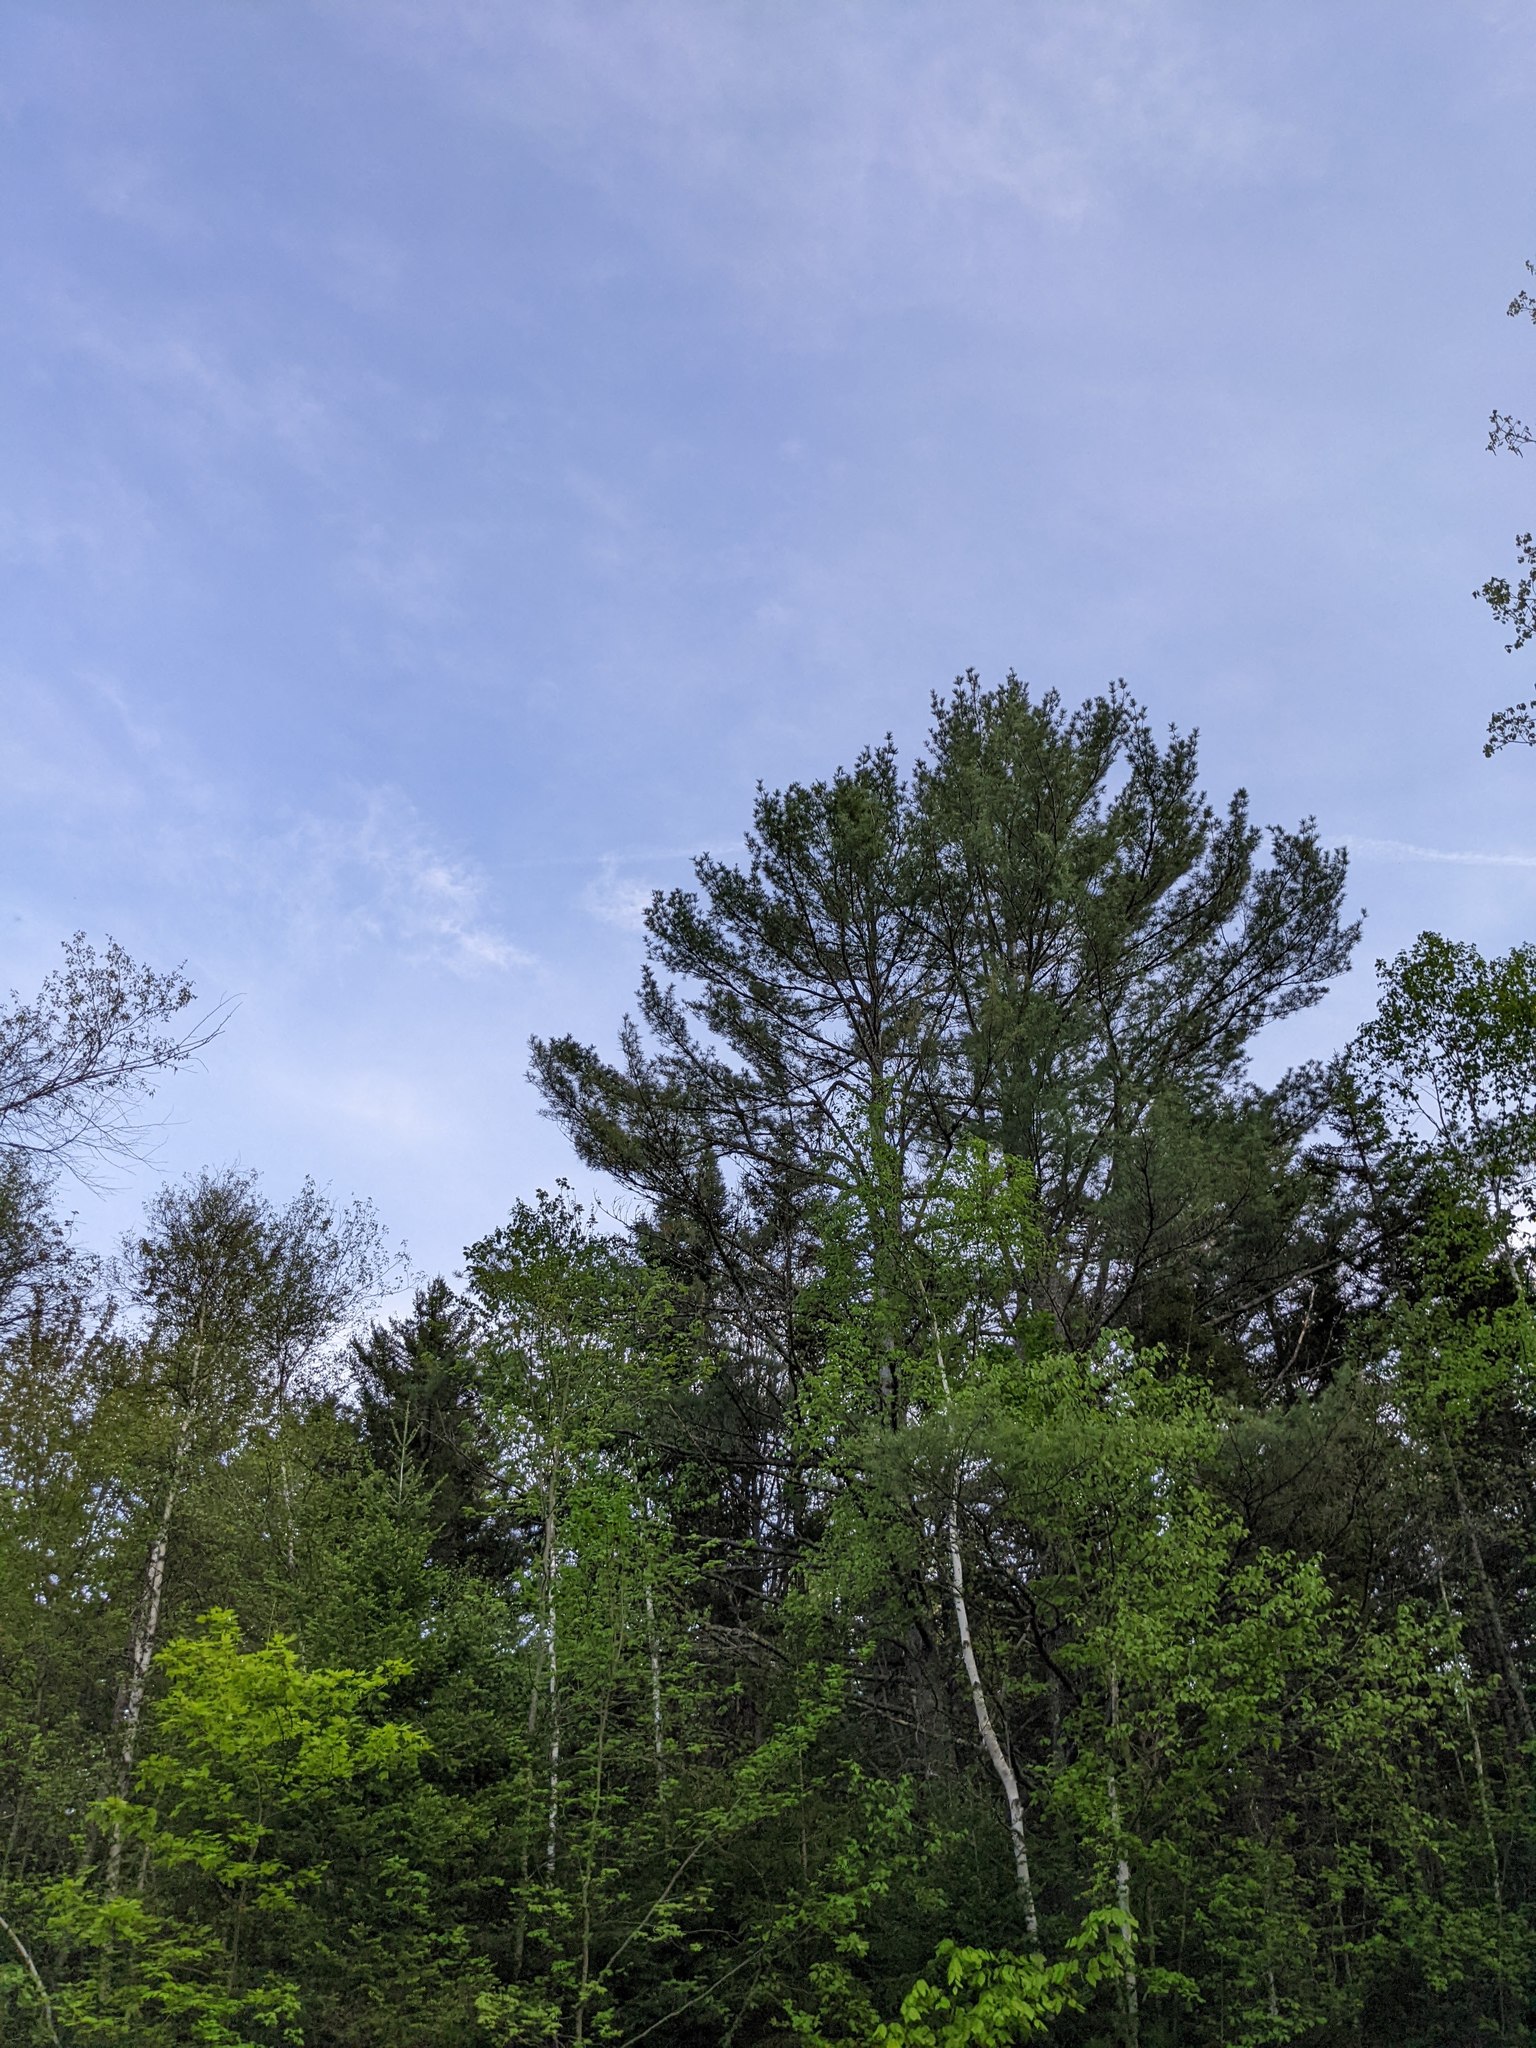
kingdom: Plantae
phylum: Tracheophyta
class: Pinopsida
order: Pinales
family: Pinaceae
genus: Pinus
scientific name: Pinus strobus
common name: Weymouth pine
